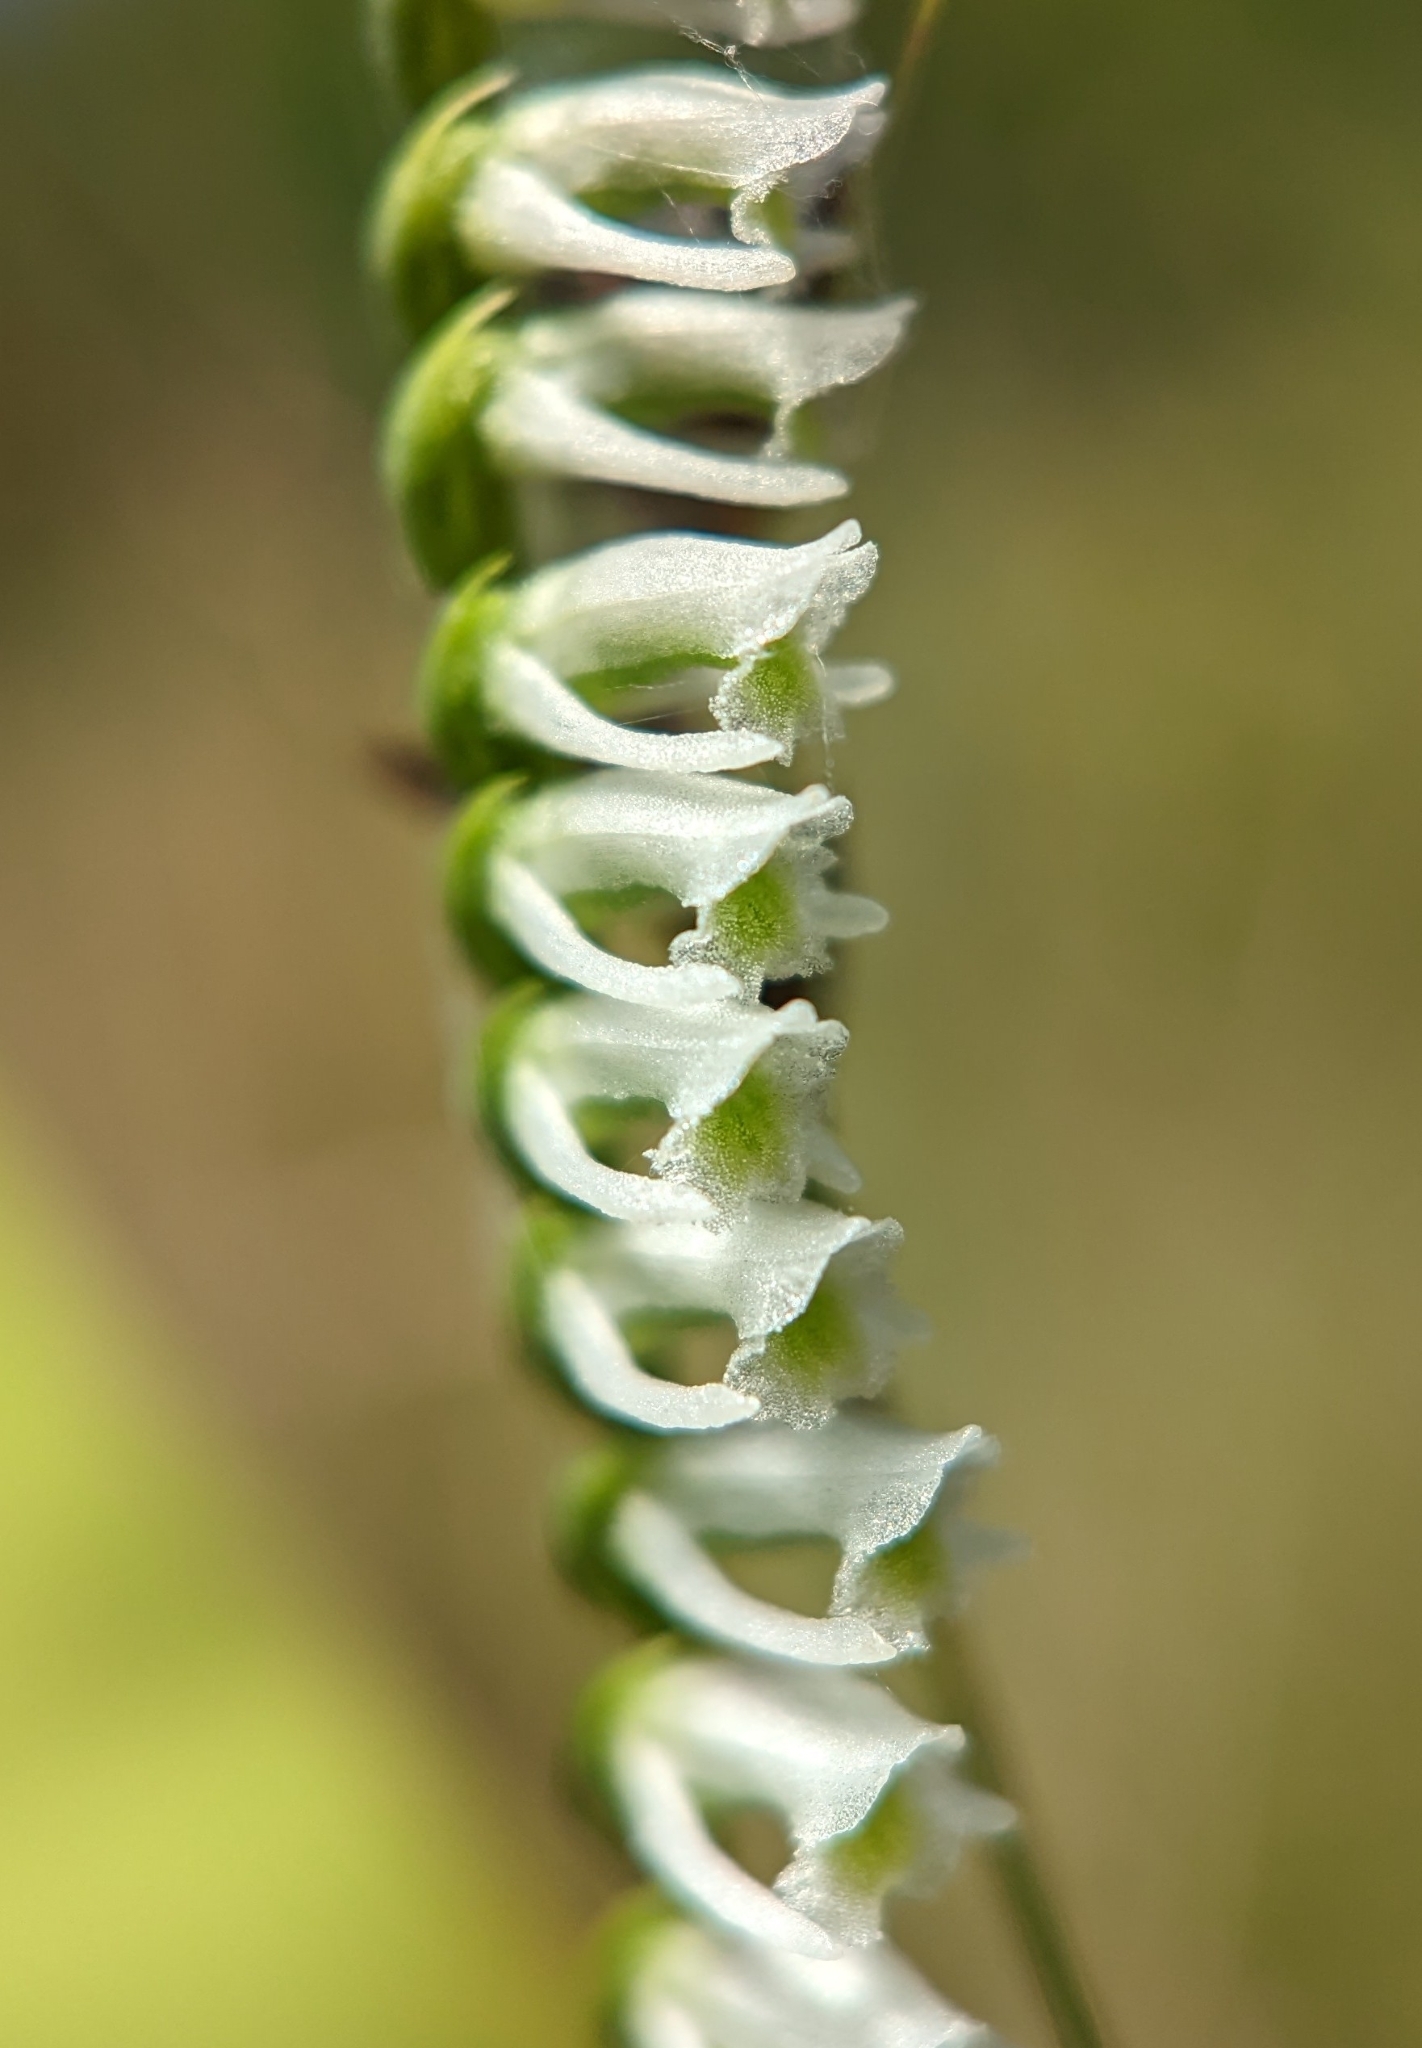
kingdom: Plantae
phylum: Tracheophyta
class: Liliopsida
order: Asparagales
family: Orchidaceae
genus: Spiranthes
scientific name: Spiranthes lacera
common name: Northern slender ladies'-tresses
